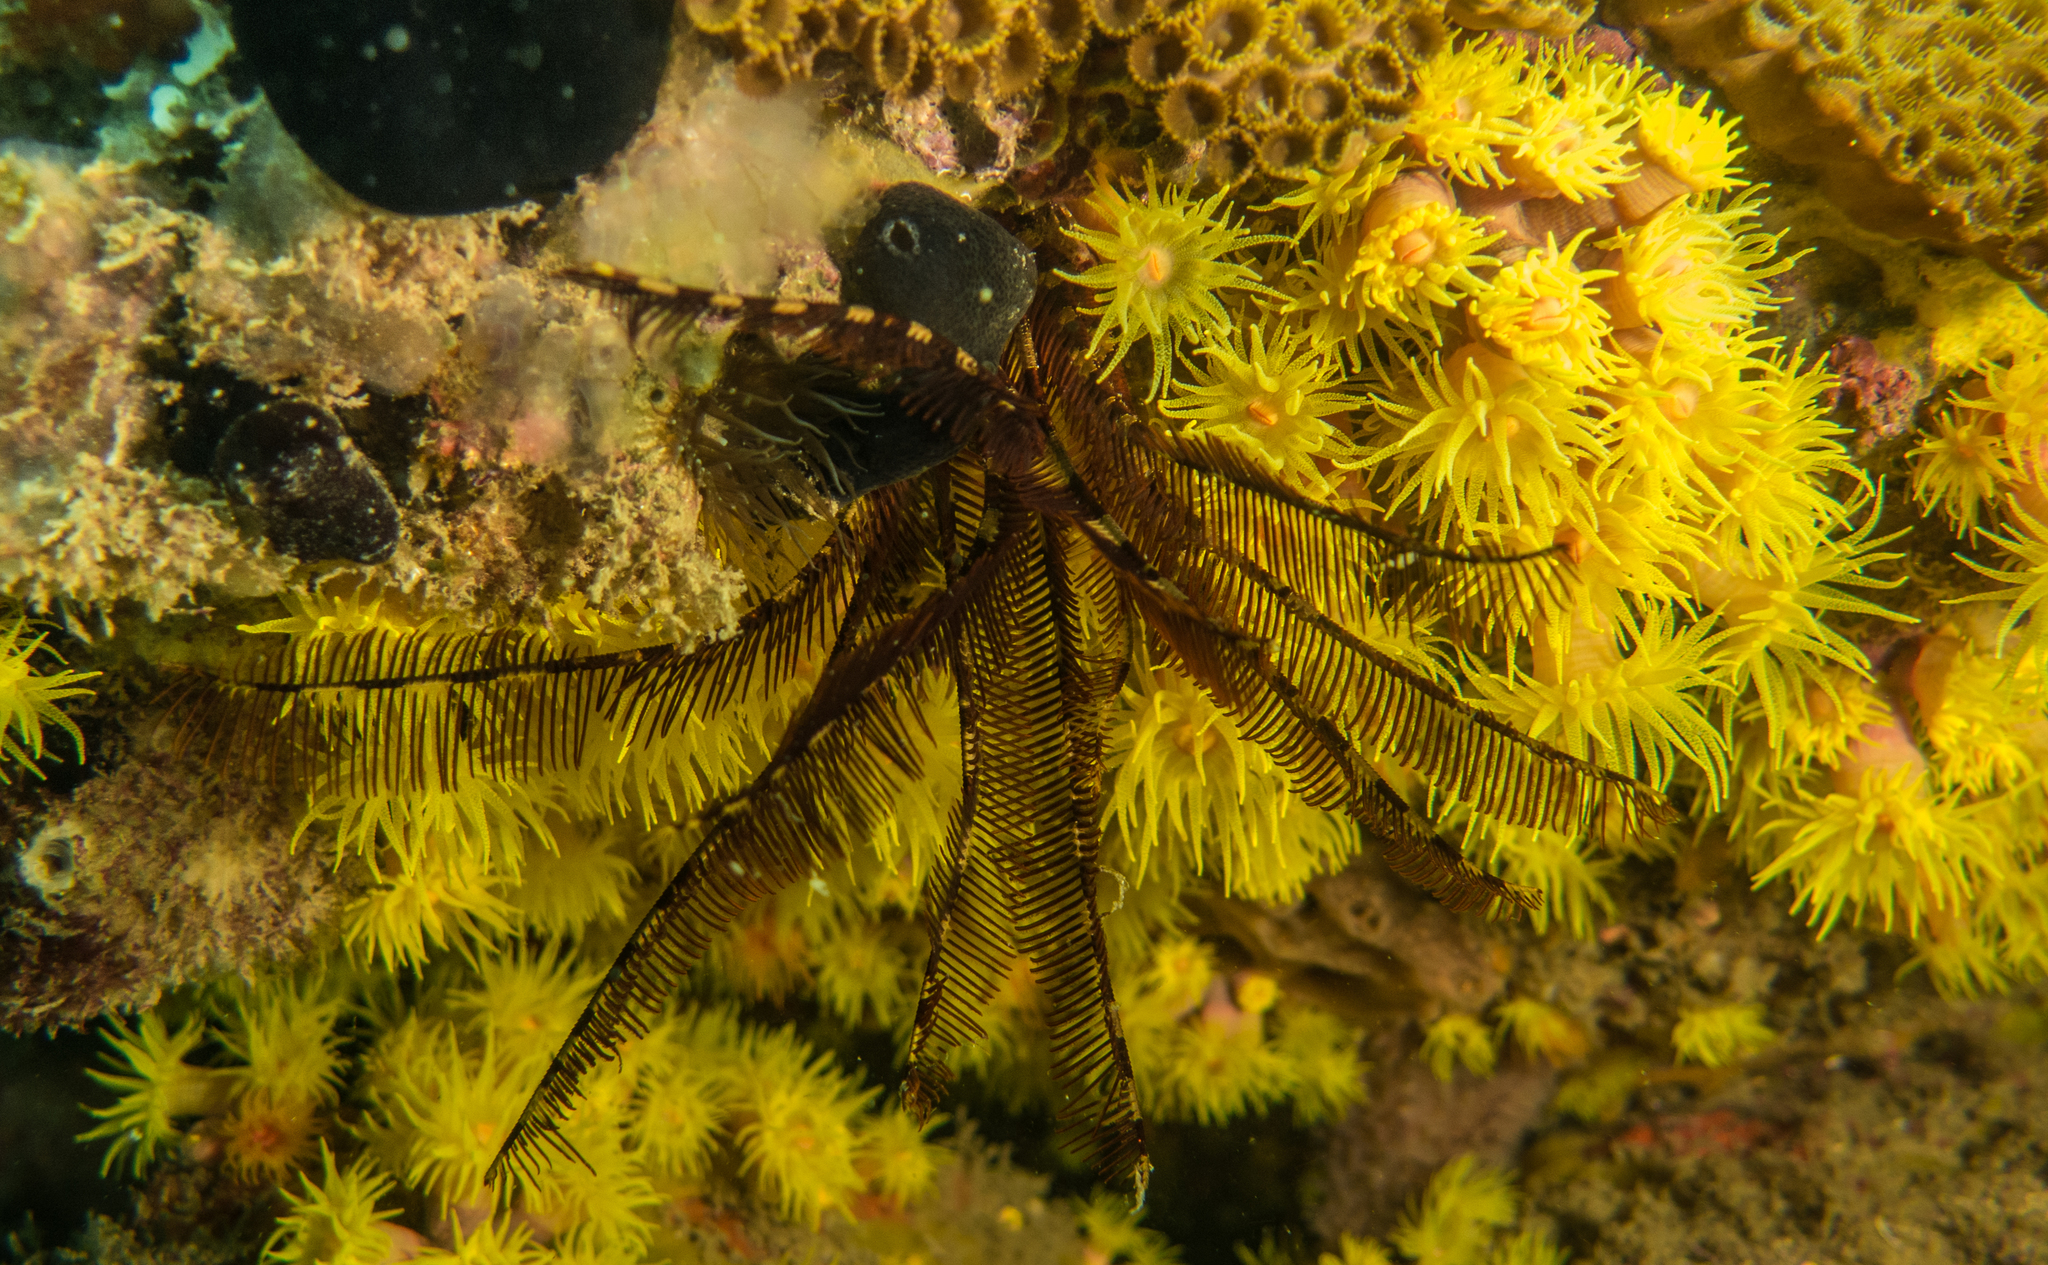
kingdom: Animalia
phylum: Echinodermata
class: Crinoidea
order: Comatulida
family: Tropiometridae
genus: Tropiometra
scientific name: Tropiometra carinata
